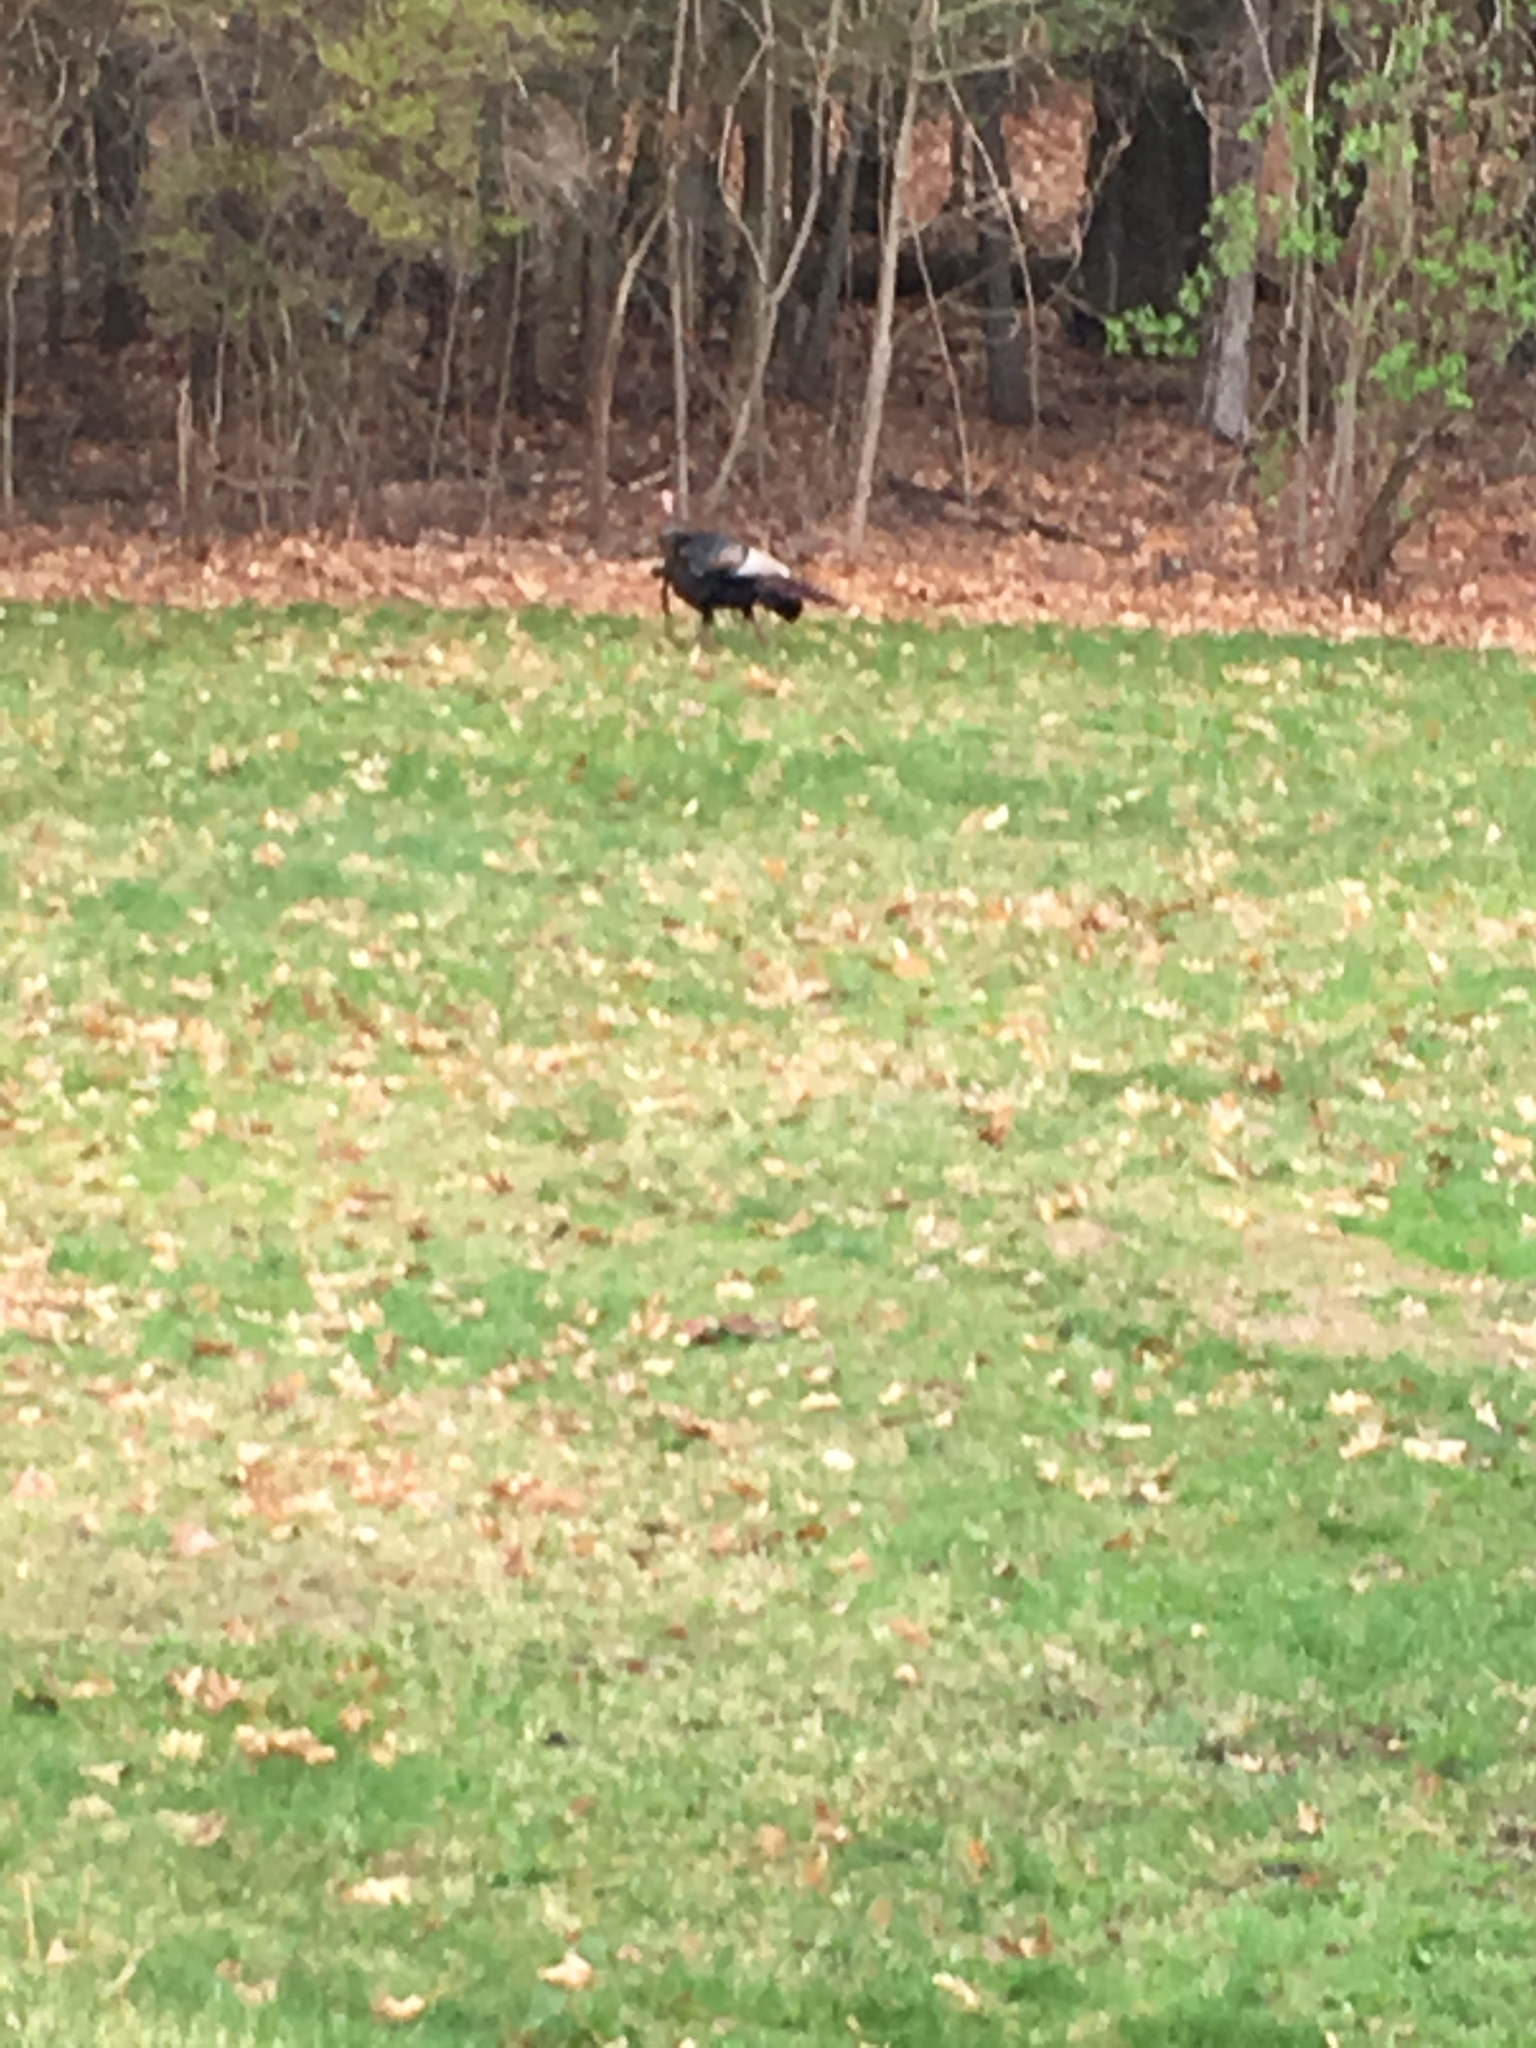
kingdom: Animalia
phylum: Chordata
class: Aves
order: Galliformes
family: Phasianidae
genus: Meleagris
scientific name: Meleagris gallopavo
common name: Wild turkey
